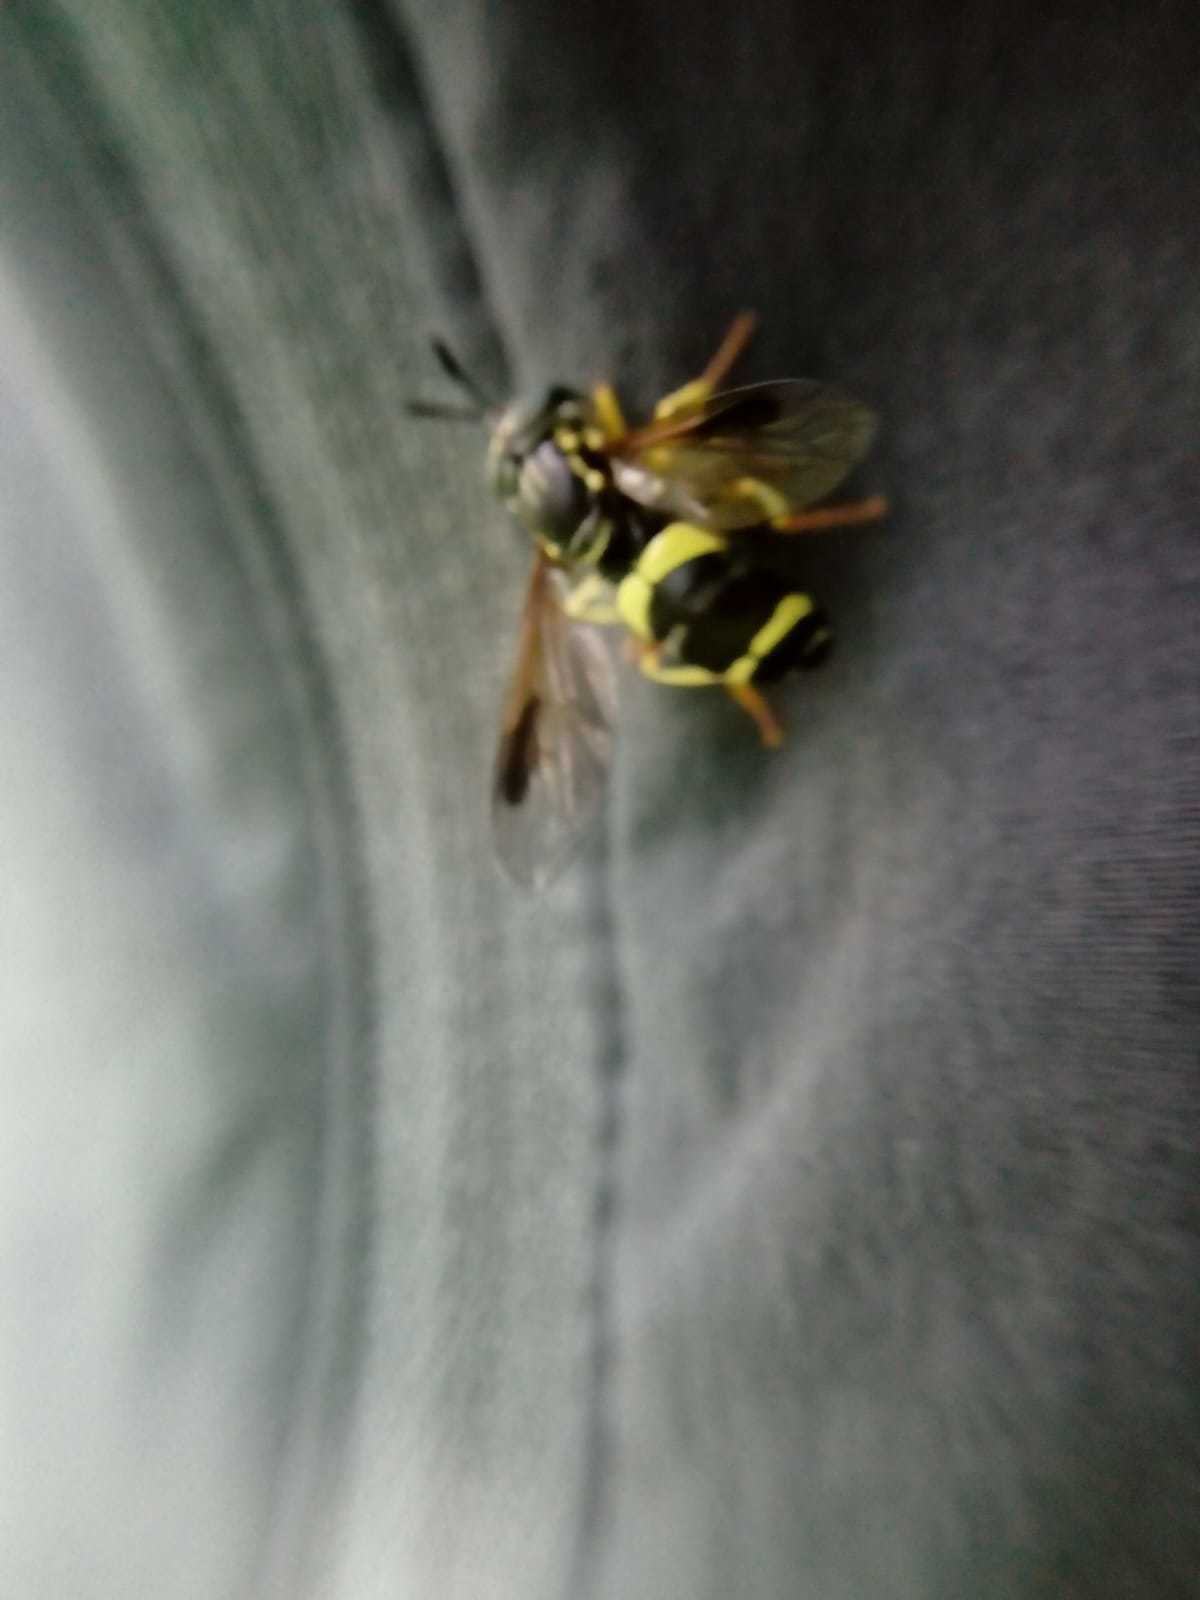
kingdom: Animalia
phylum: Arthropoda
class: Insecta
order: Diptera
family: Syrphidae
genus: Chrysotoxum
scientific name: Chrysotoxum bicincta
